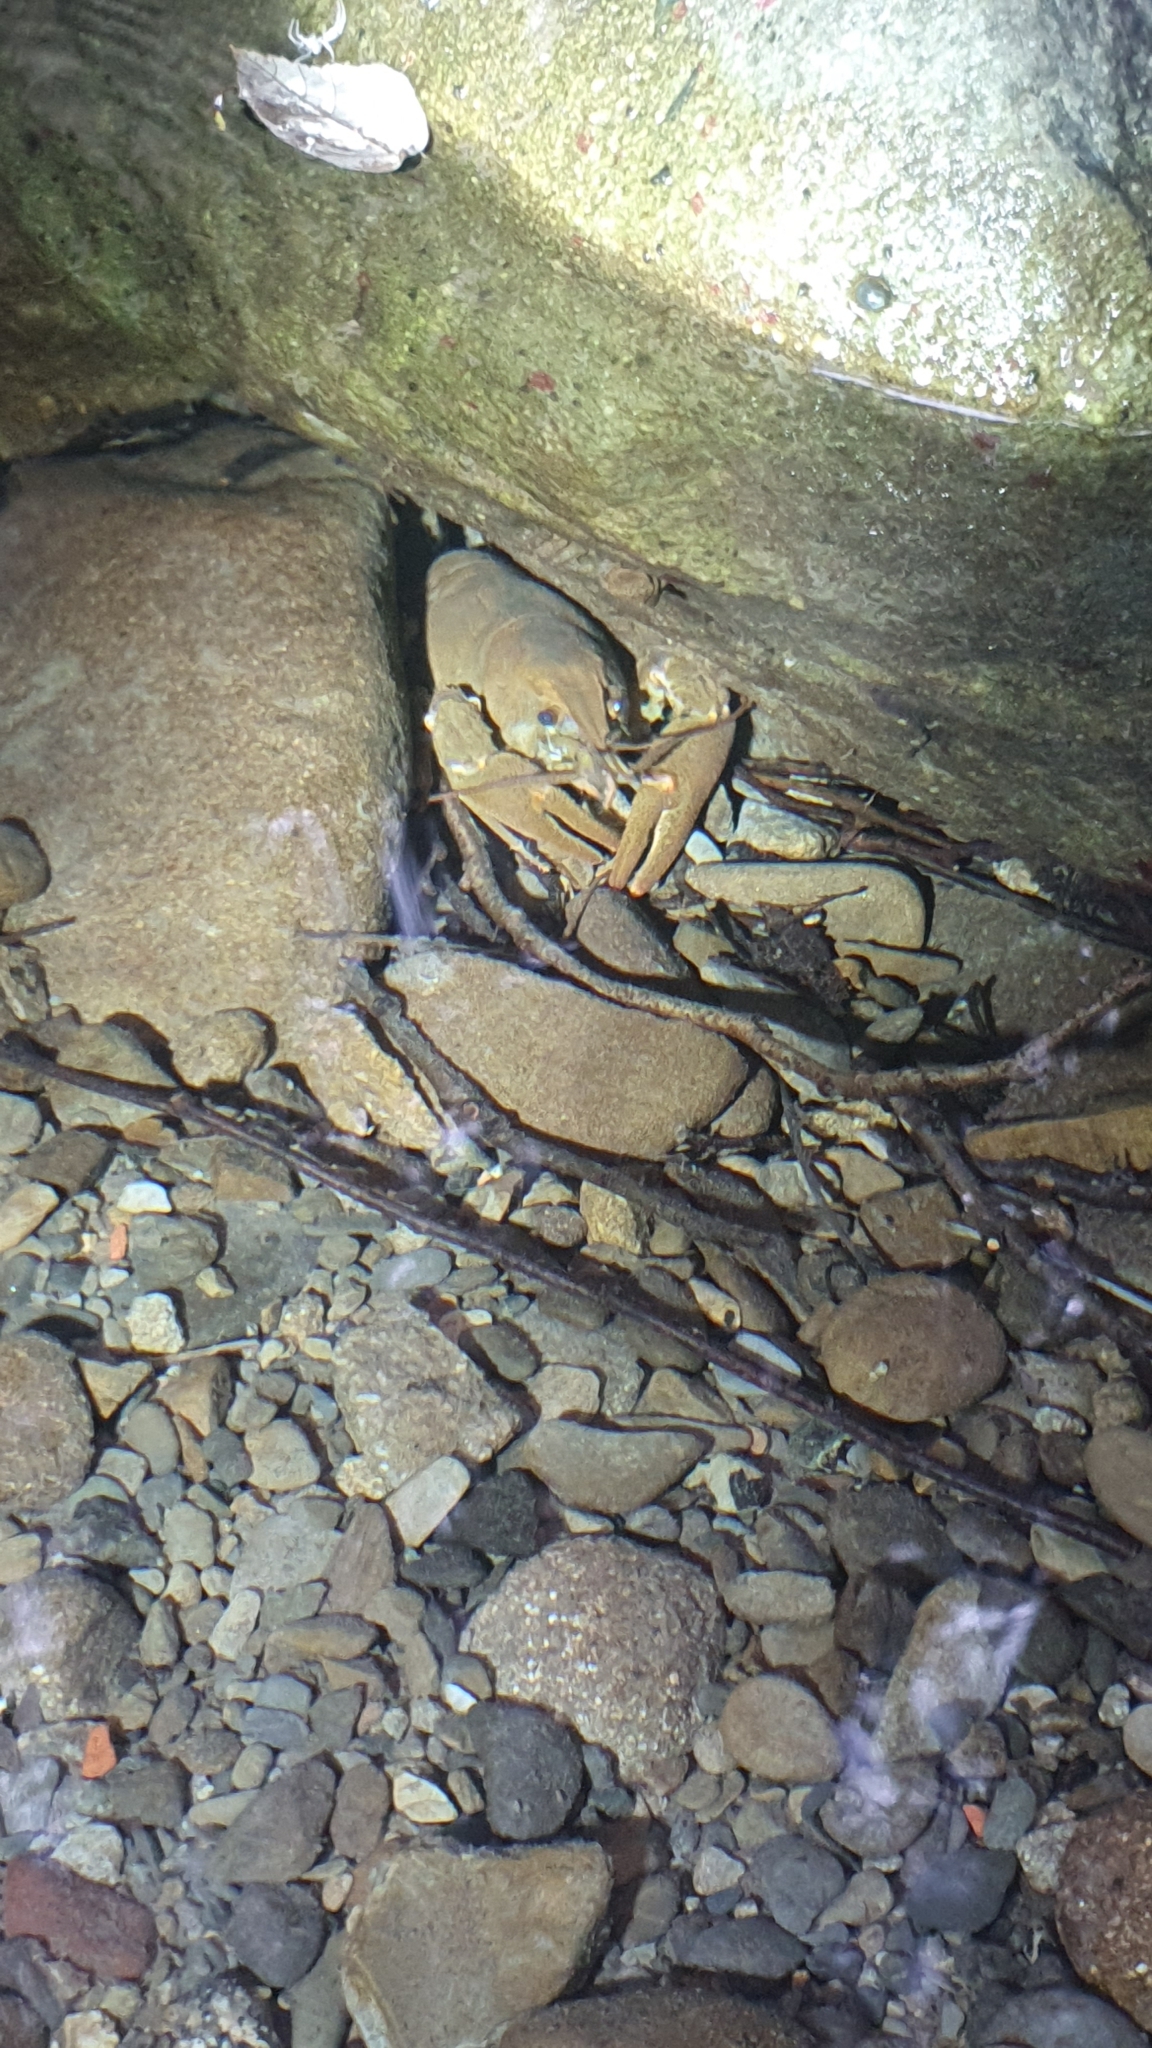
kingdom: Animalia
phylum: Arthropoda
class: Malacostraca
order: Decapoda
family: Astacidae
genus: Austropotamobius
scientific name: Austropotamobius pallipes
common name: White-clawed crayfish
